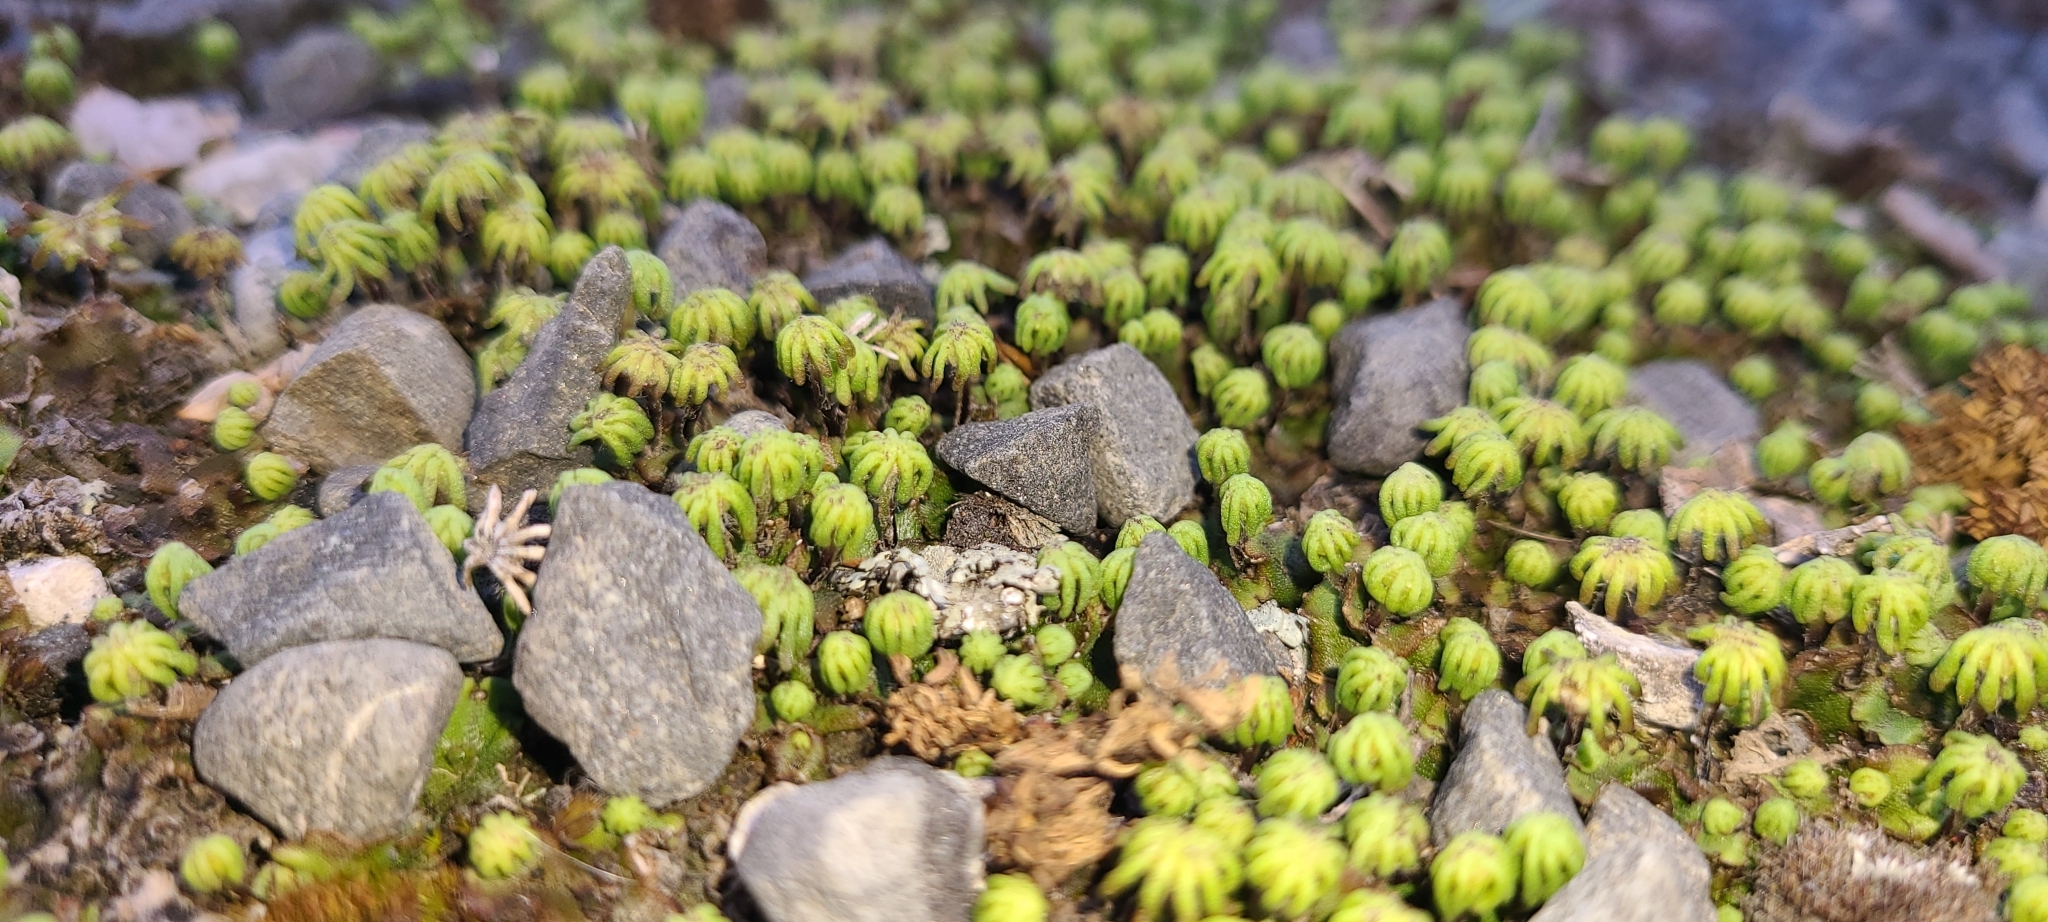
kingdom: Plantae
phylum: Marchantiophyta
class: Marchantiopsida
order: Marchantiales
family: Marchantiaceae
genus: Marchantia
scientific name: Marchantia polymorpha
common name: Common liverwort
